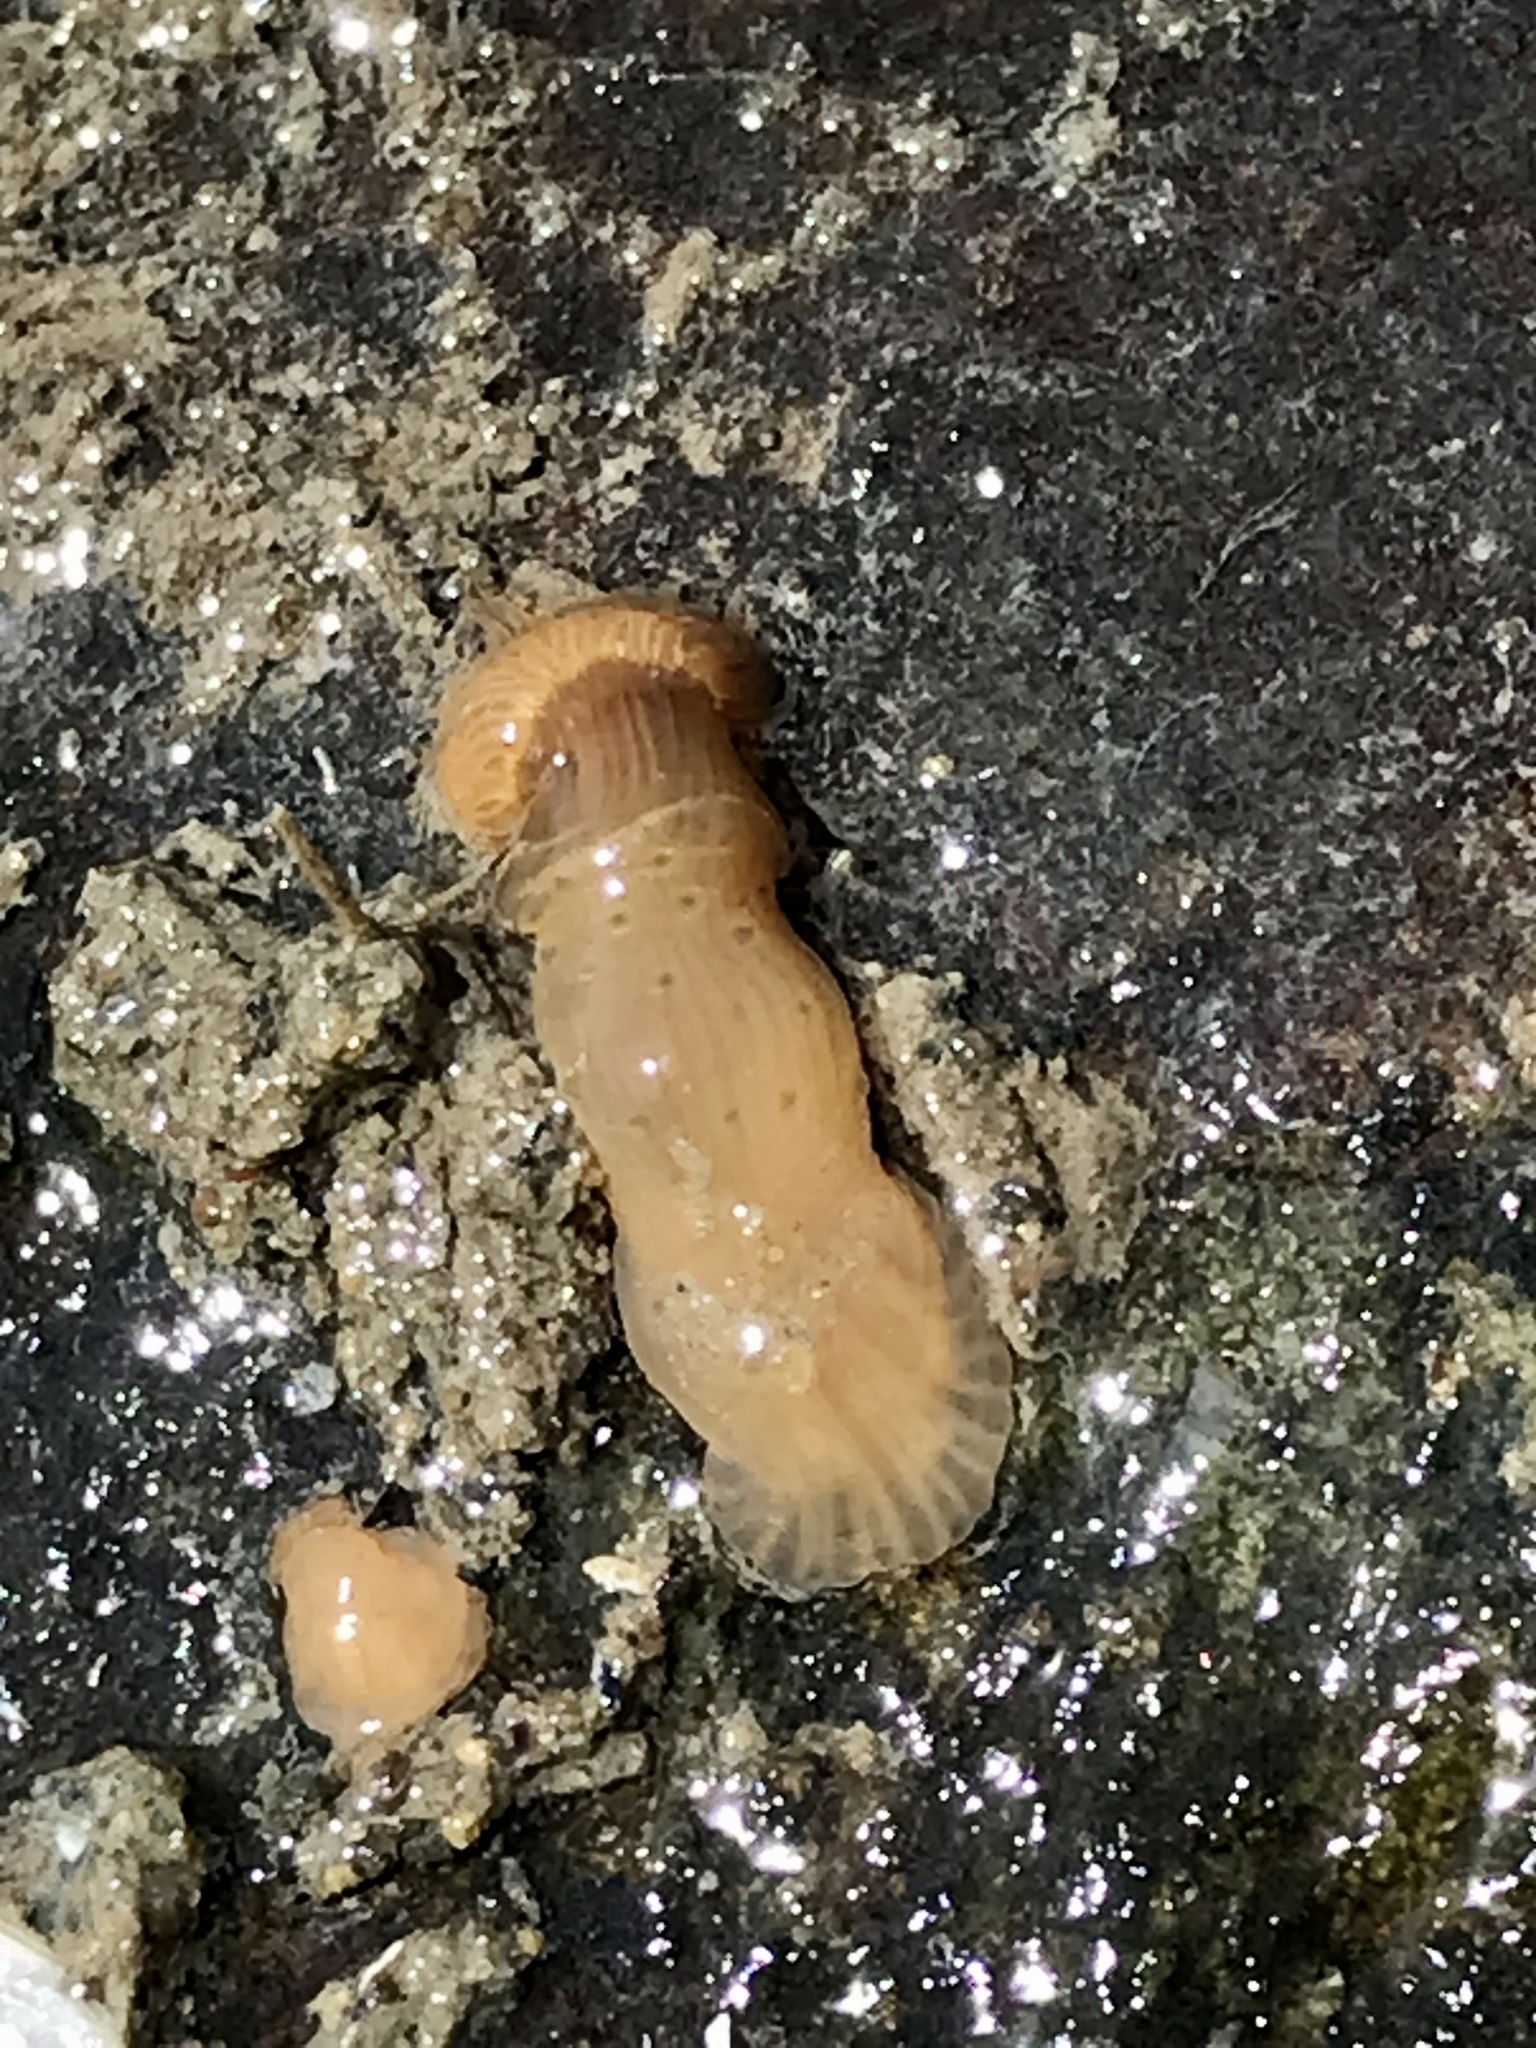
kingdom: Animalia
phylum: Cnidaria
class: Anthozoa
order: Actiniaria
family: Diadumenidae
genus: Diadumene
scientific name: Diadumene leucolena
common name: White anemone
